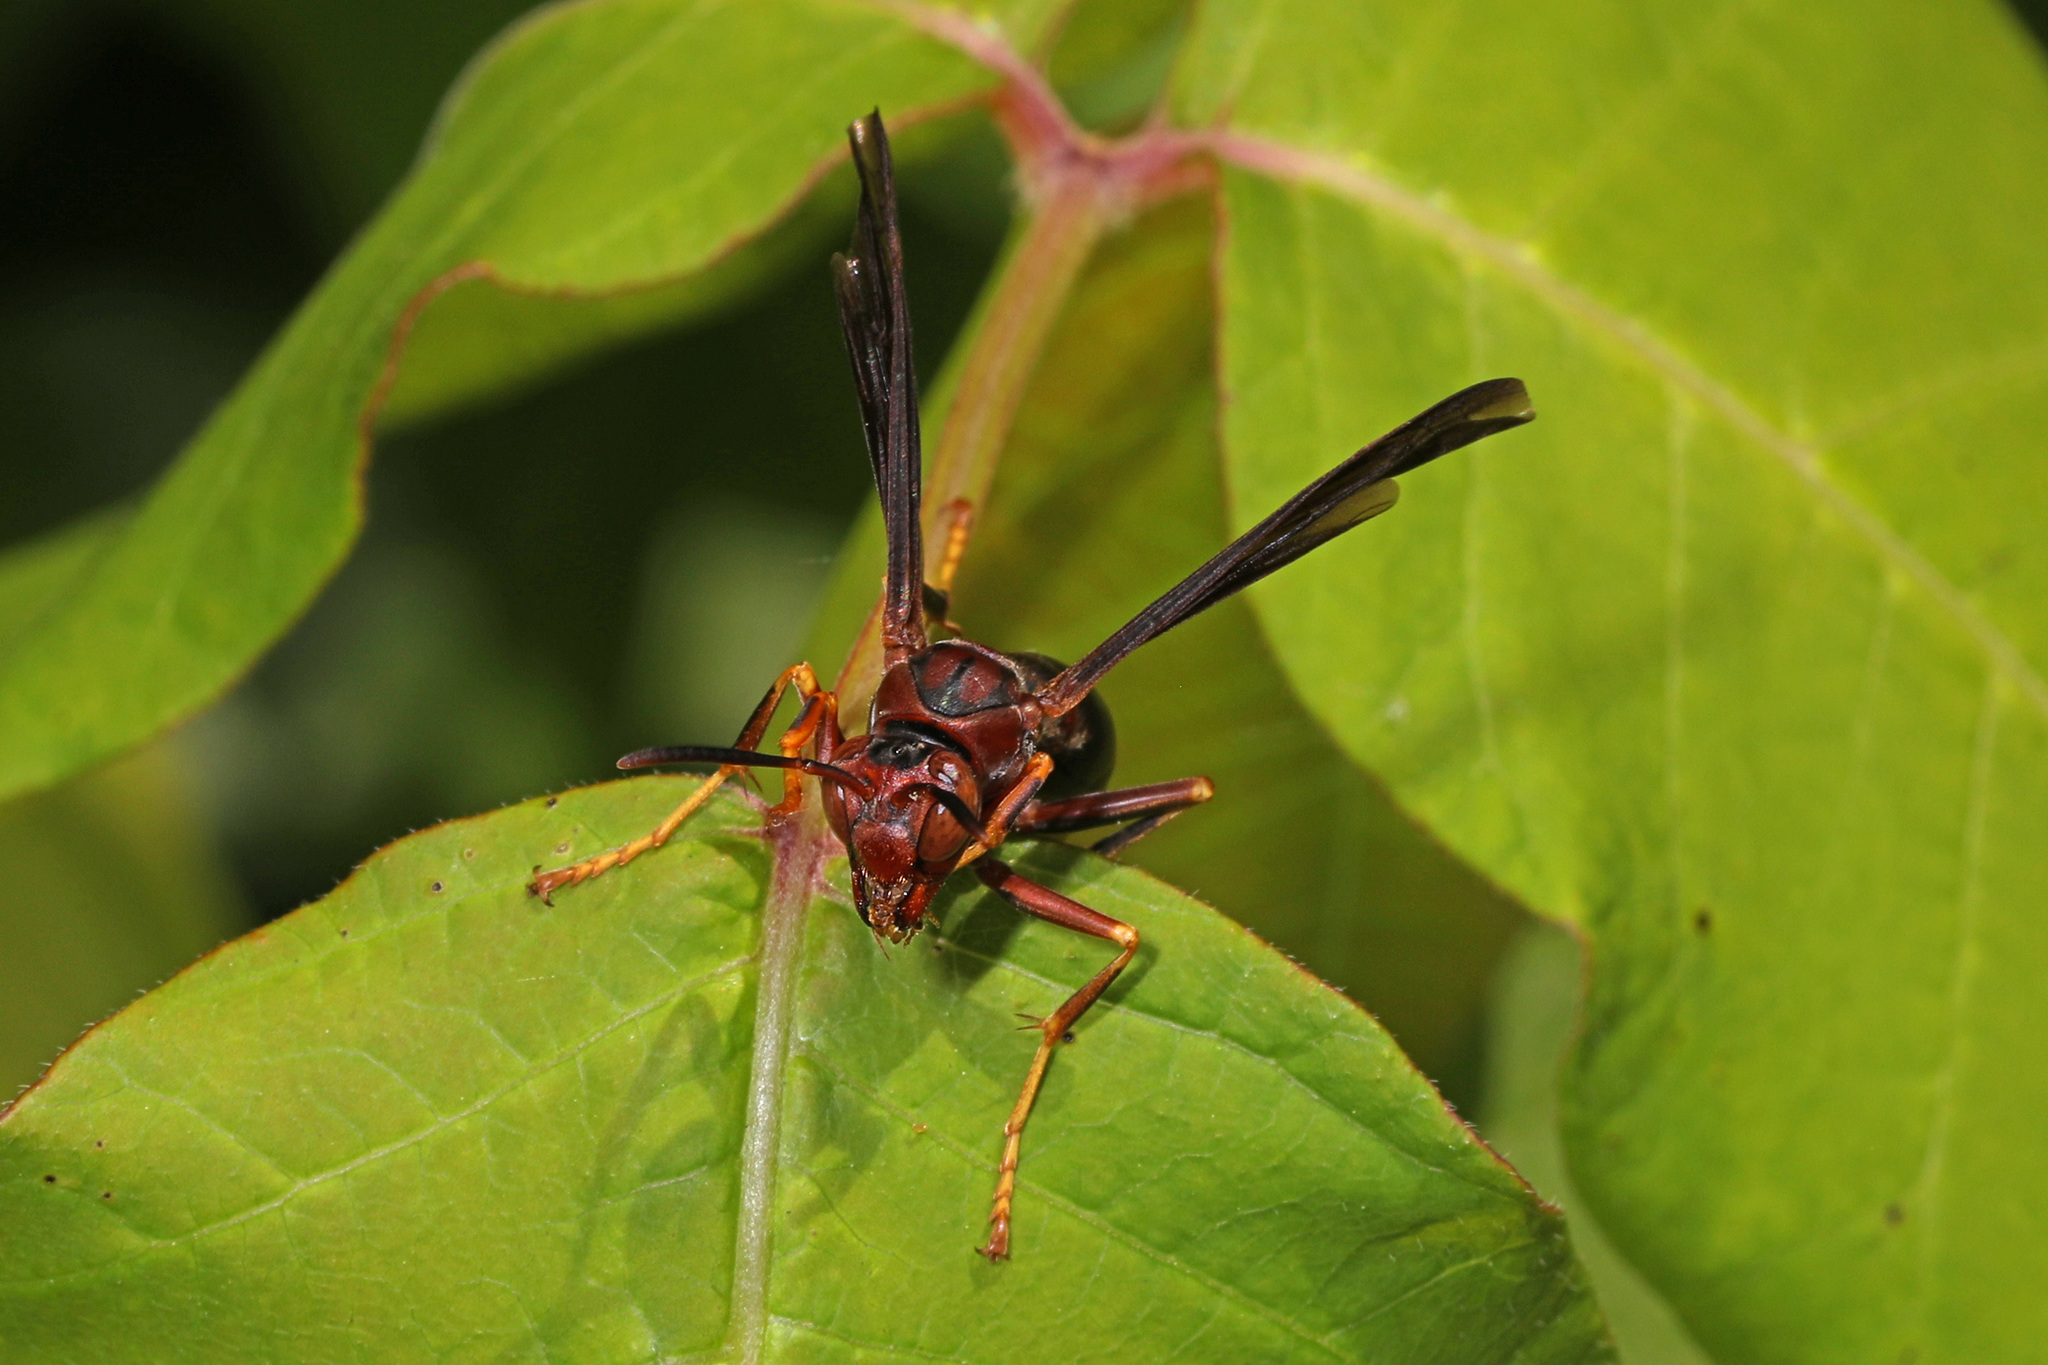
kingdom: Animalia
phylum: Arthropoda
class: Insecta
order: Hymenoptera
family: Eumenidae
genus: Polistes
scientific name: Polistes metricus
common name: Metric paper wasp
